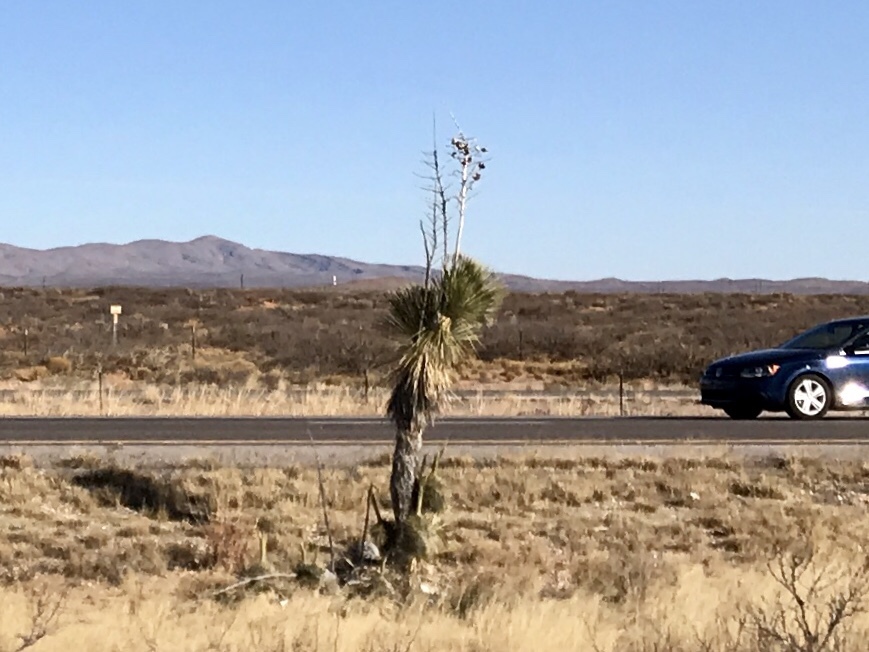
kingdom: Plantae
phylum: Tracheophyta
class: Liliopsida
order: Asparagales
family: Asparagaceae
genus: Yucca
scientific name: Yucca elata
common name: Palmella
